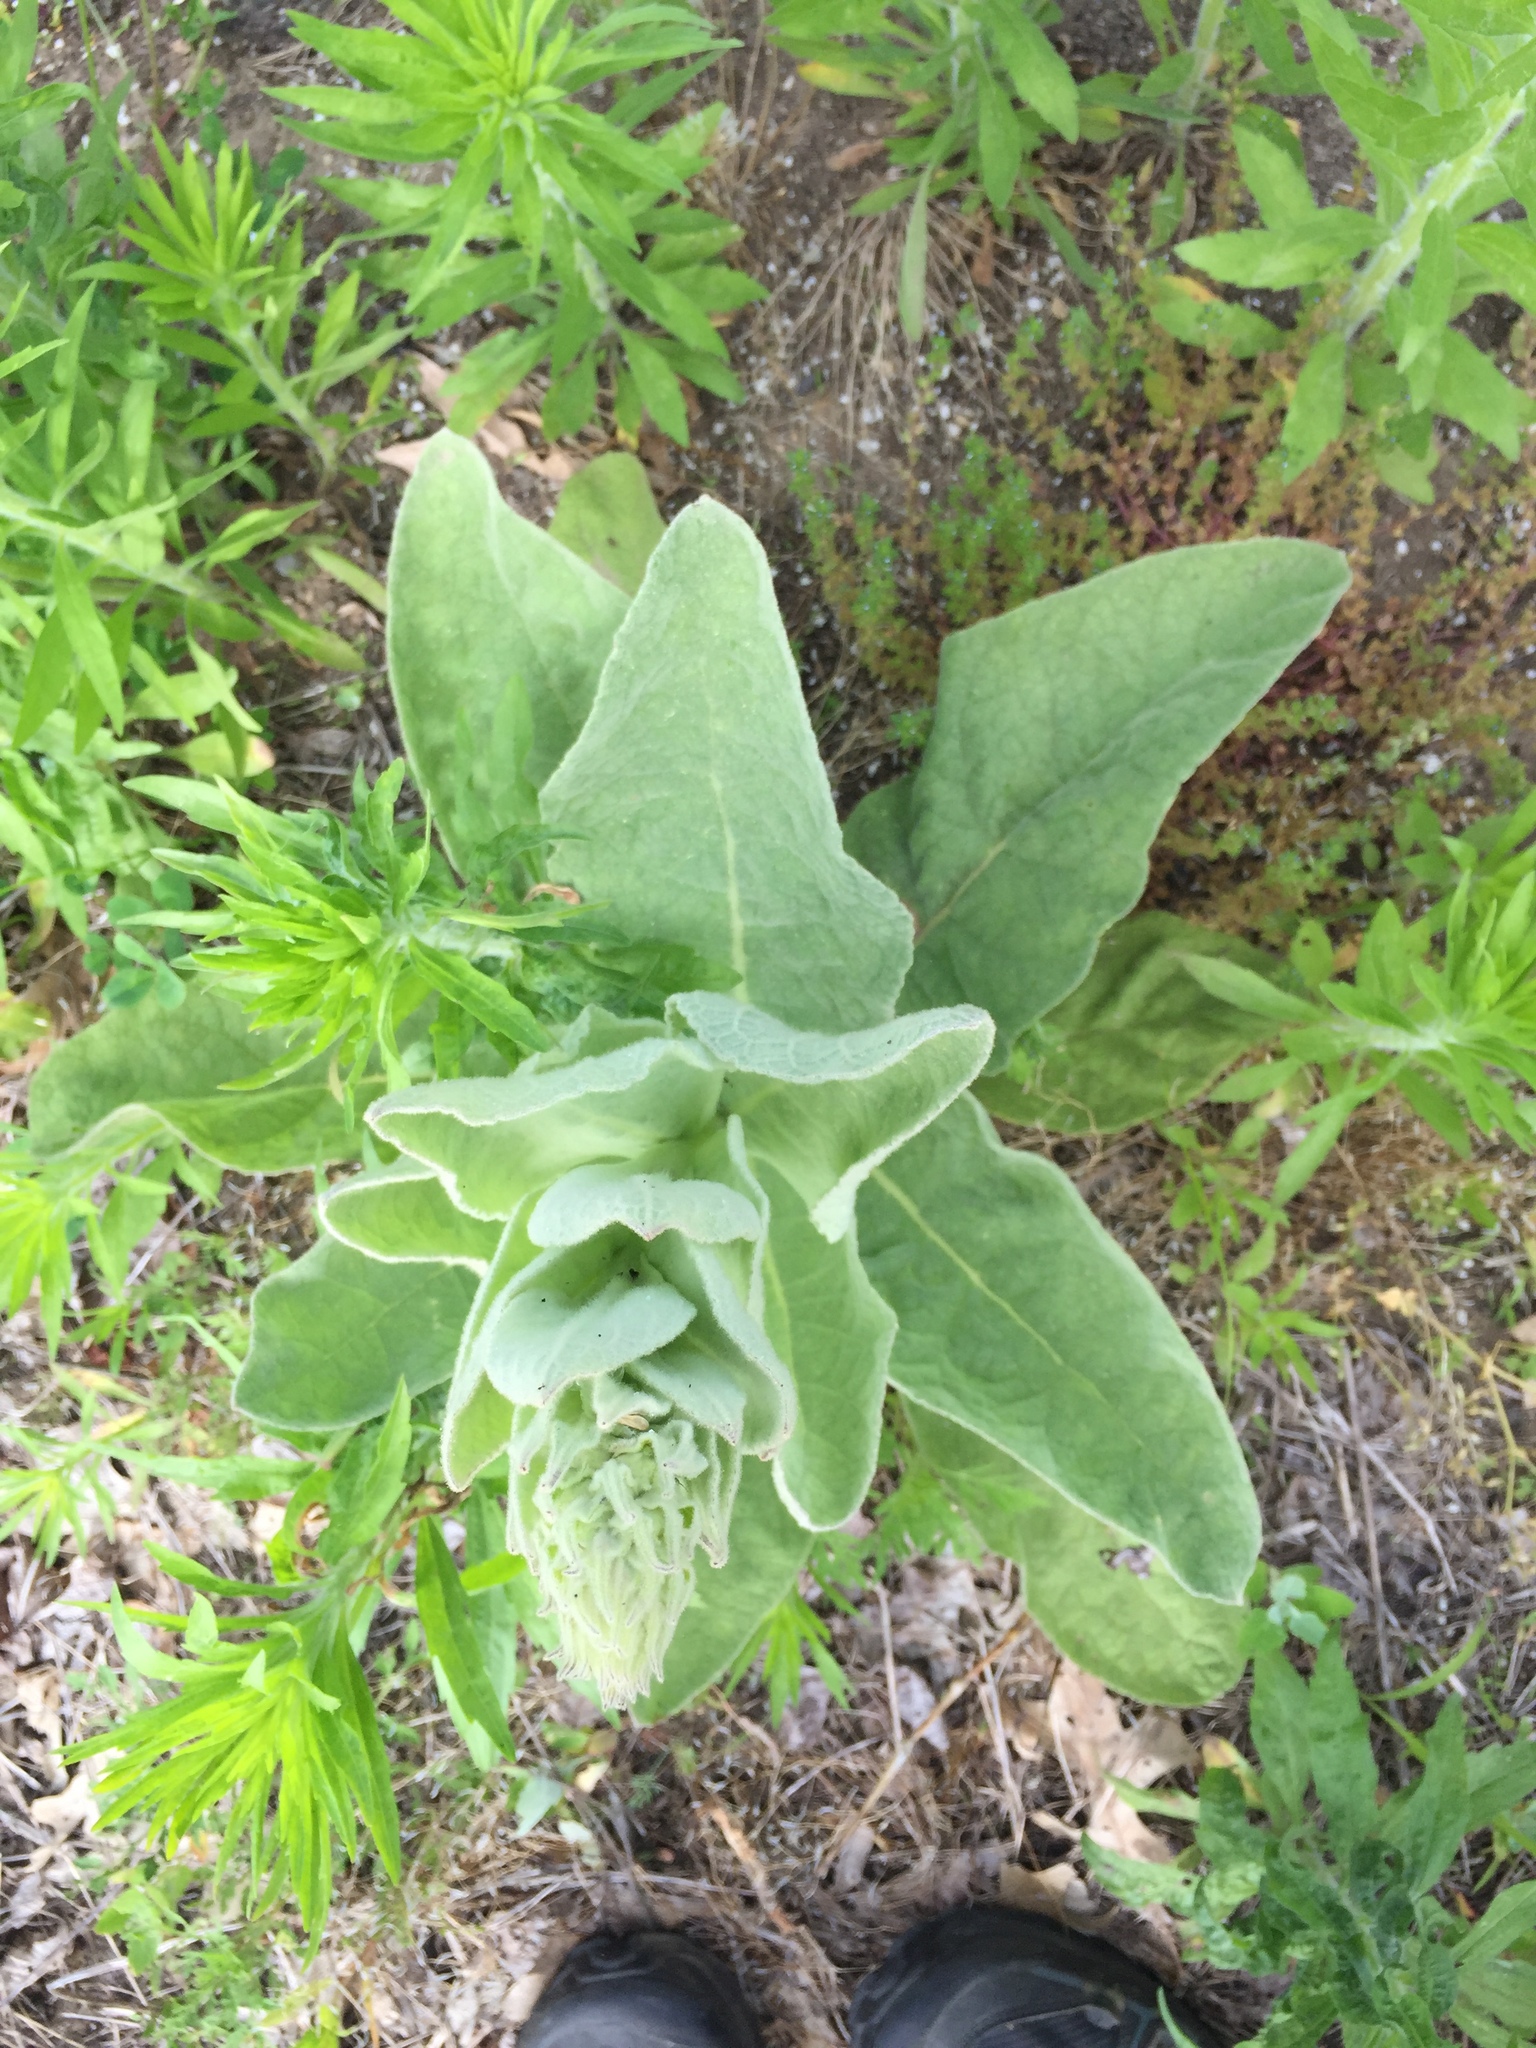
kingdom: Plantae
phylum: Tracheophyta
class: Magnoliopsida
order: Lamiales
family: Scrophulariaceae
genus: Verbascum
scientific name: Verbascum thapsus
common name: Common mullein
